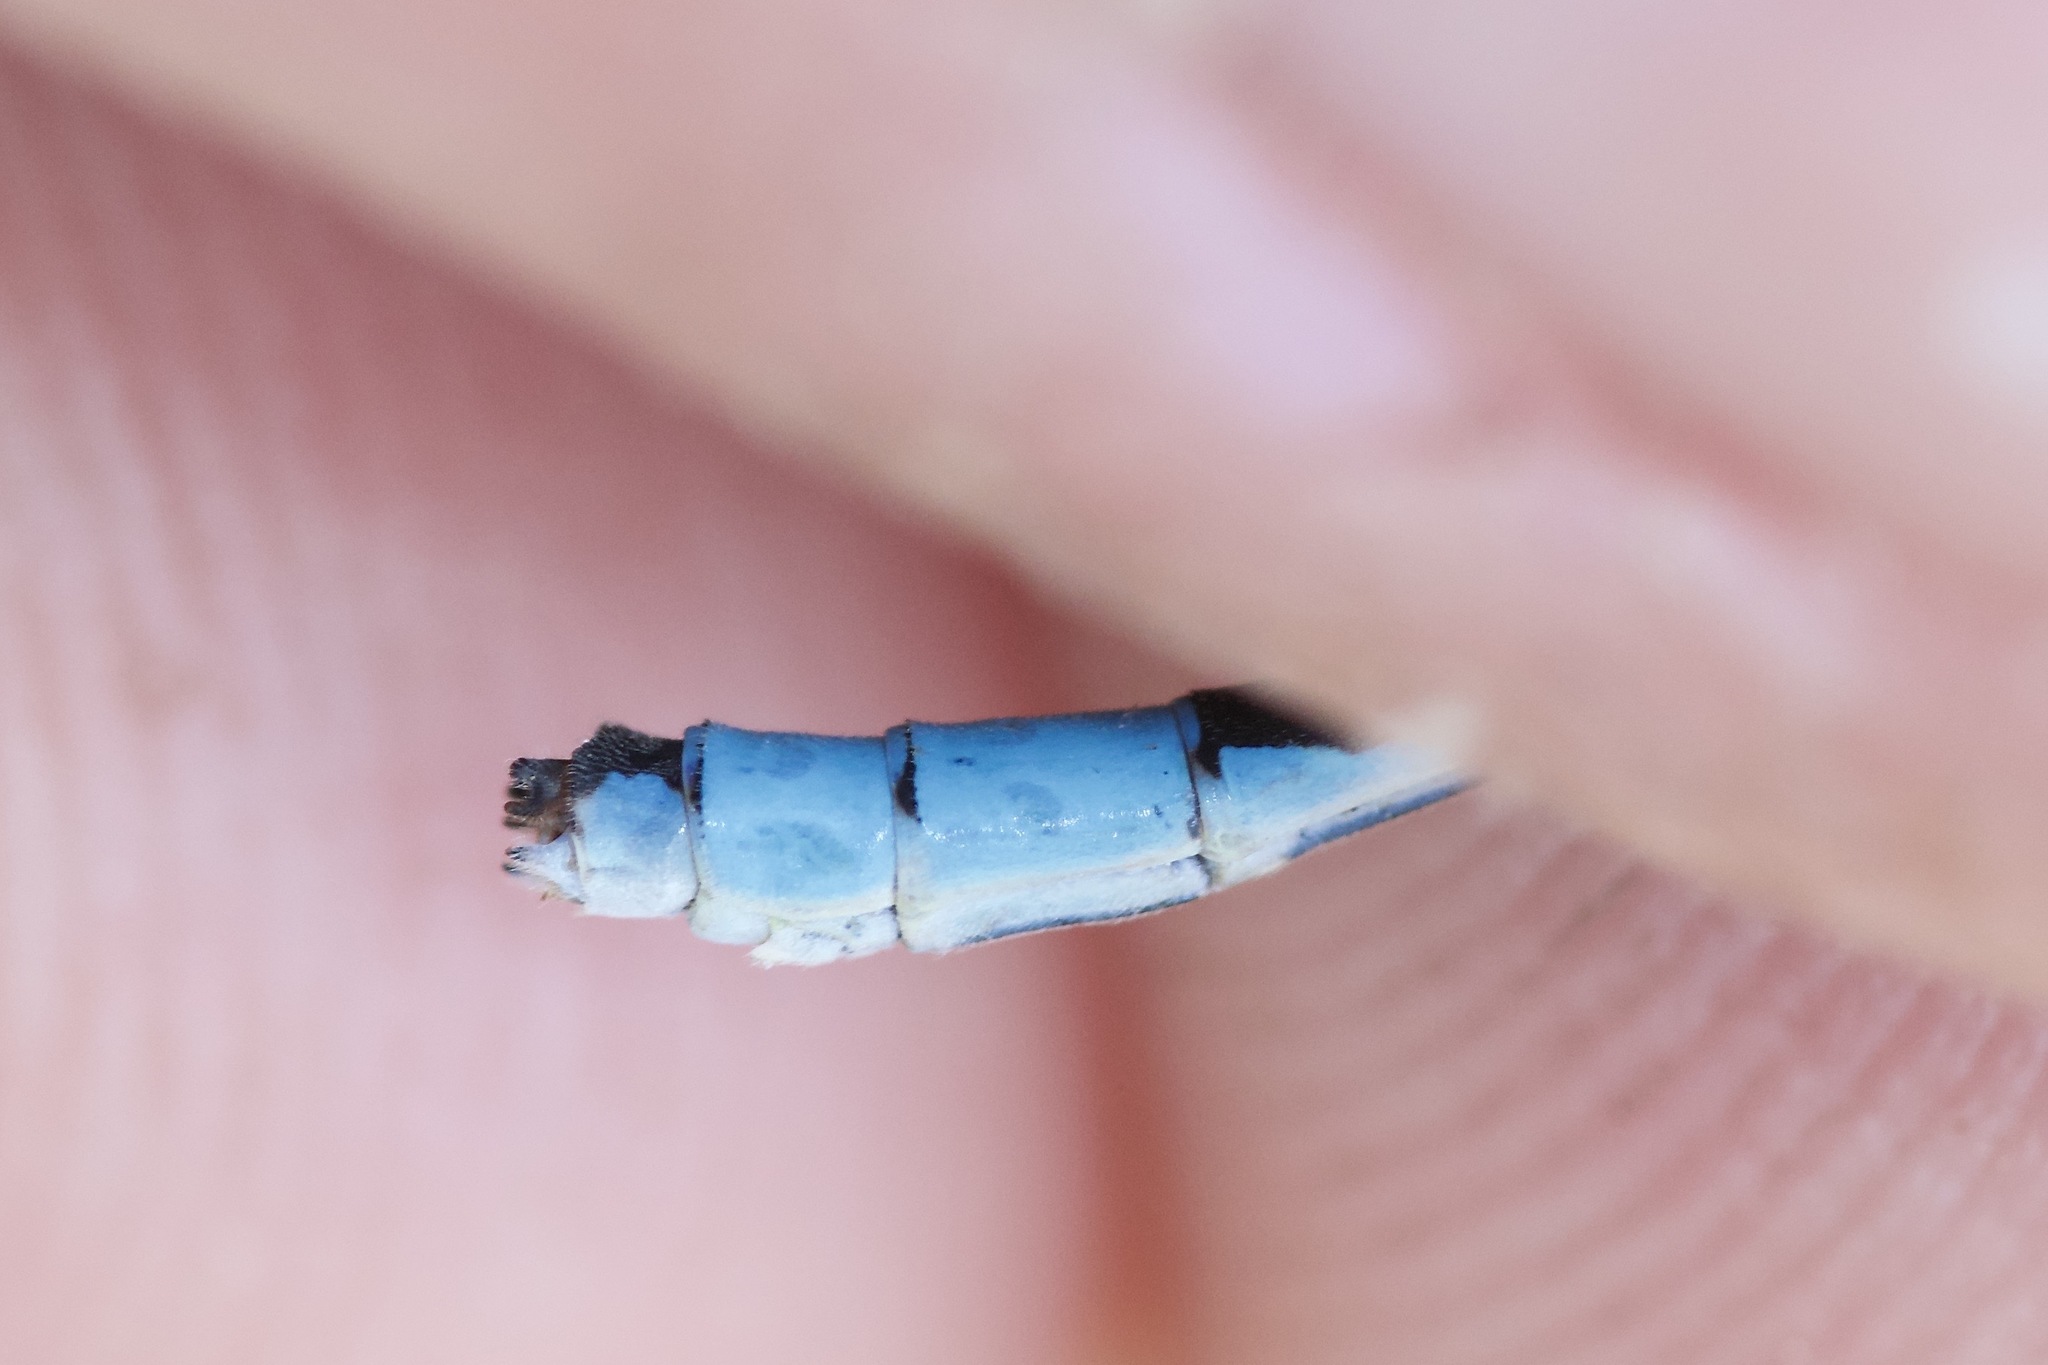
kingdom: Animalia
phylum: Arthropoda
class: Insecta
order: Odonata
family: Coenagrionidae
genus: Enallagma
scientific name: Enallagma ebrium
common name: Marsh bluet
